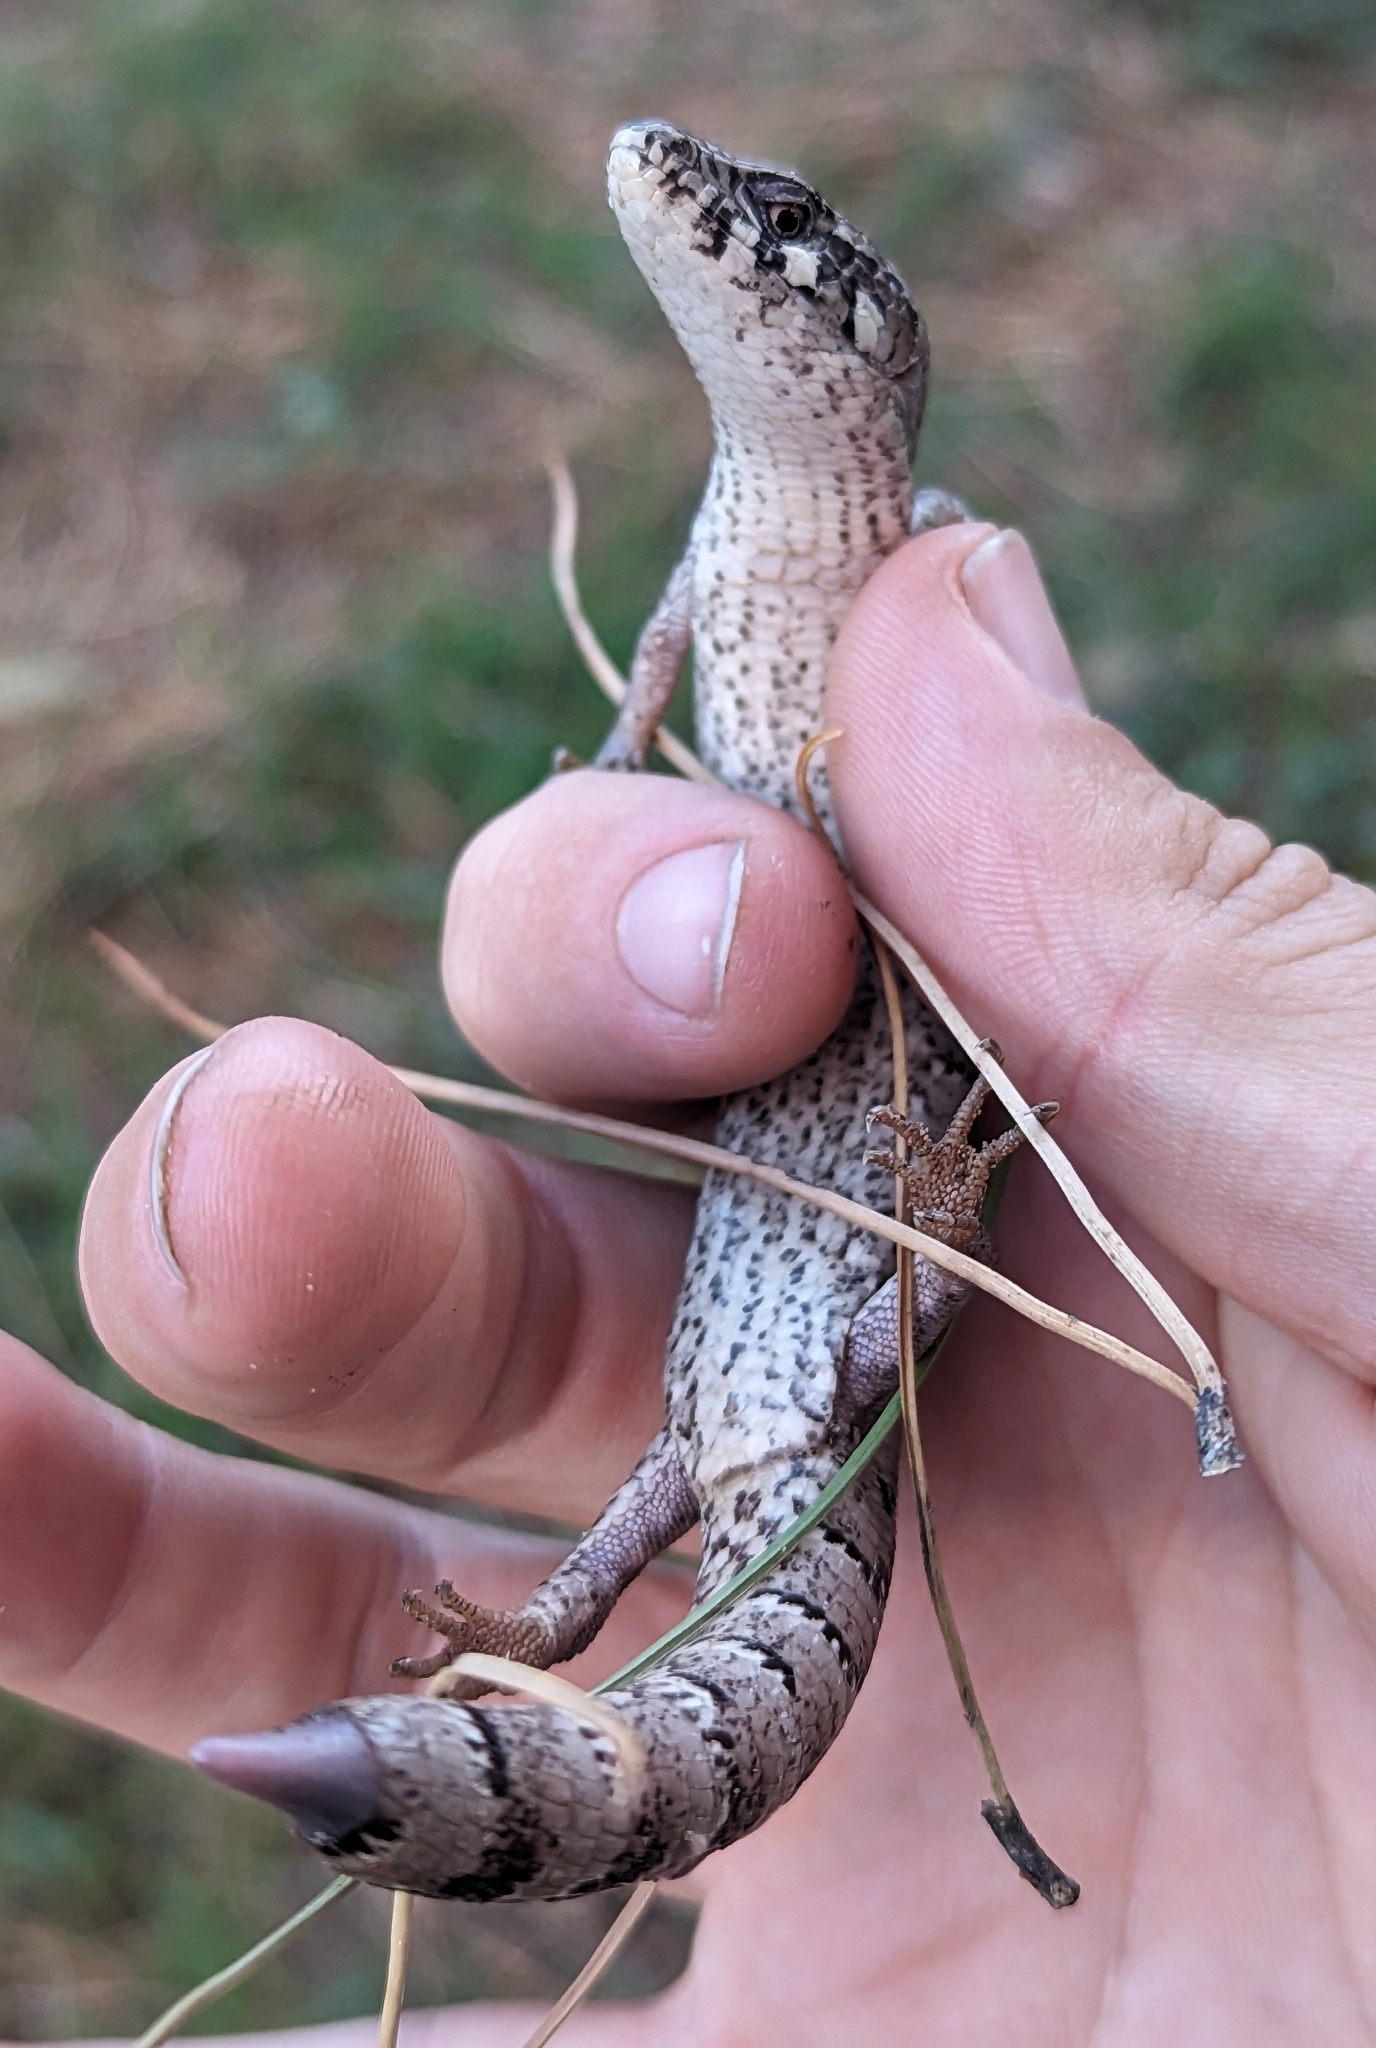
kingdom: Animalia
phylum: Chordata
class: Squamata
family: Anguidae
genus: Elgaria
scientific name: Elgaria kingii
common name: Madrean alligator lizard
